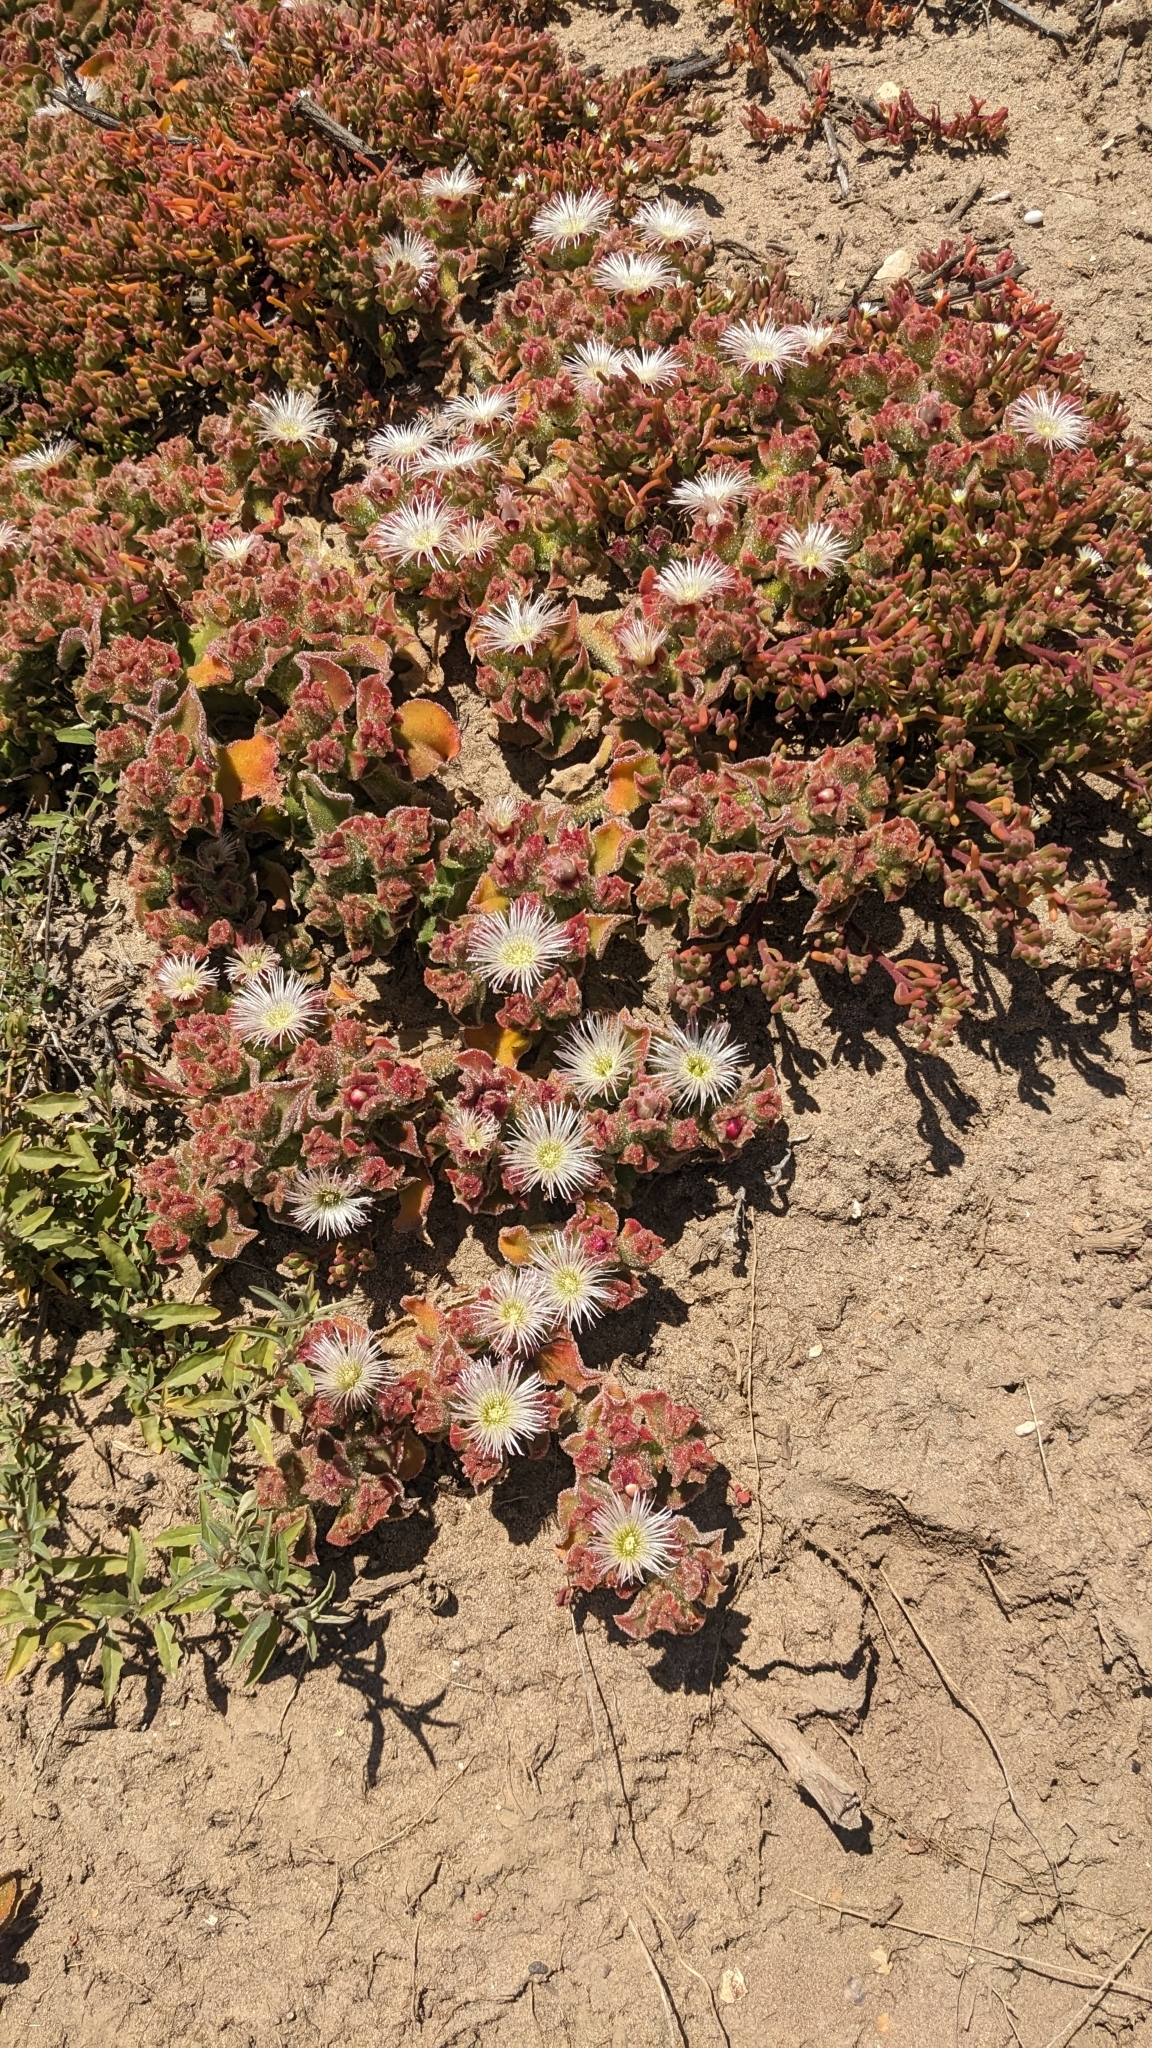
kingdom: Plantae
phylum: Tracheophyta
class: Magnoliopsida
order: Caryophyllales
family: Aizoaceae
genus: Mesembryanthemum
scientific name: Mesembryanthemum crystallinum
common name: Common iceplant
